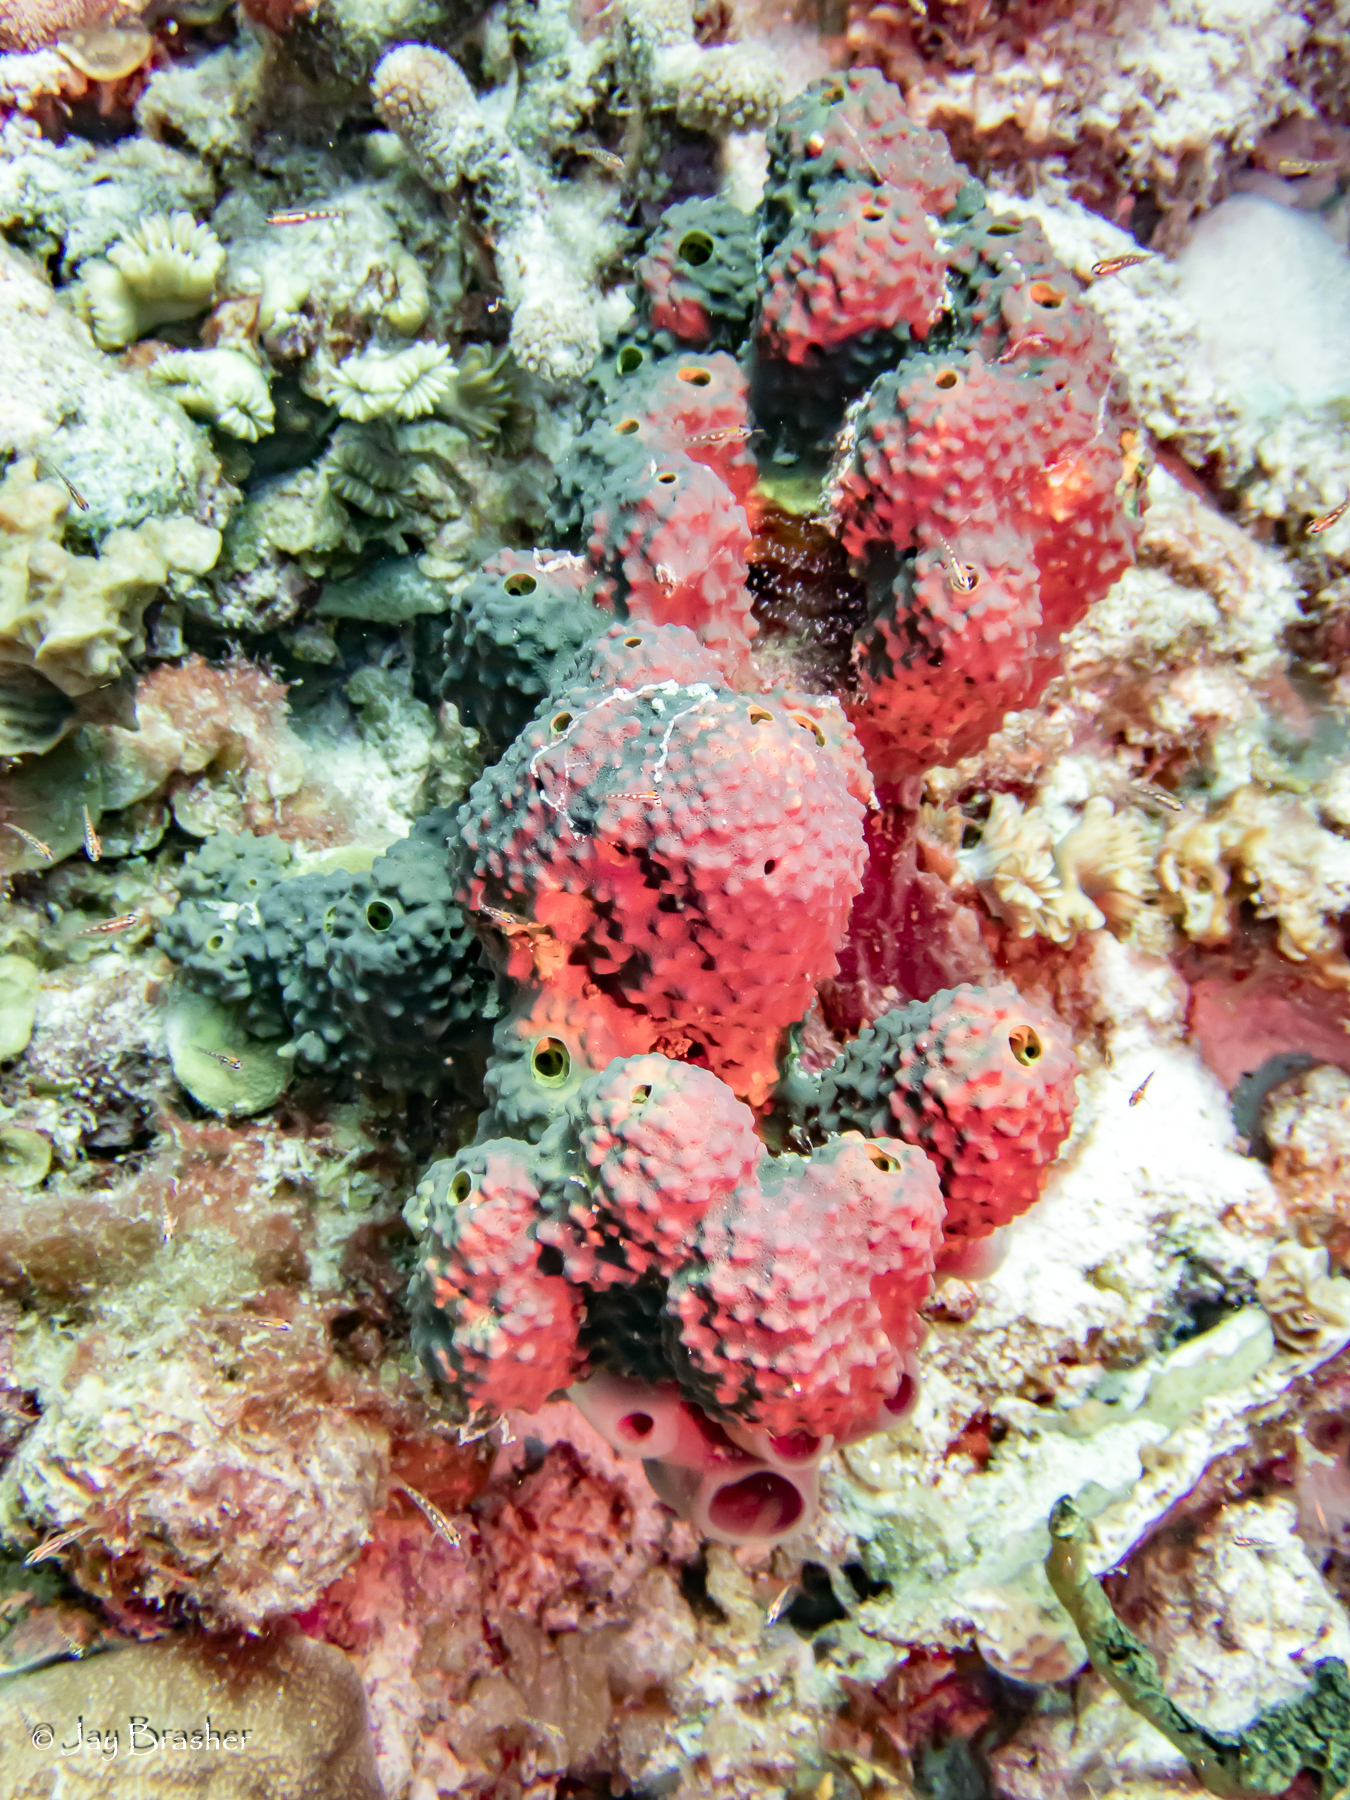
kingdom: Animalia
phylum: Porifera
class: Demospongiae
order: Verongiida
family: Aplysinidae
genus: Aiolochroia
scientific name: Aiolochroia crassa
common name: Branching tube sponge
